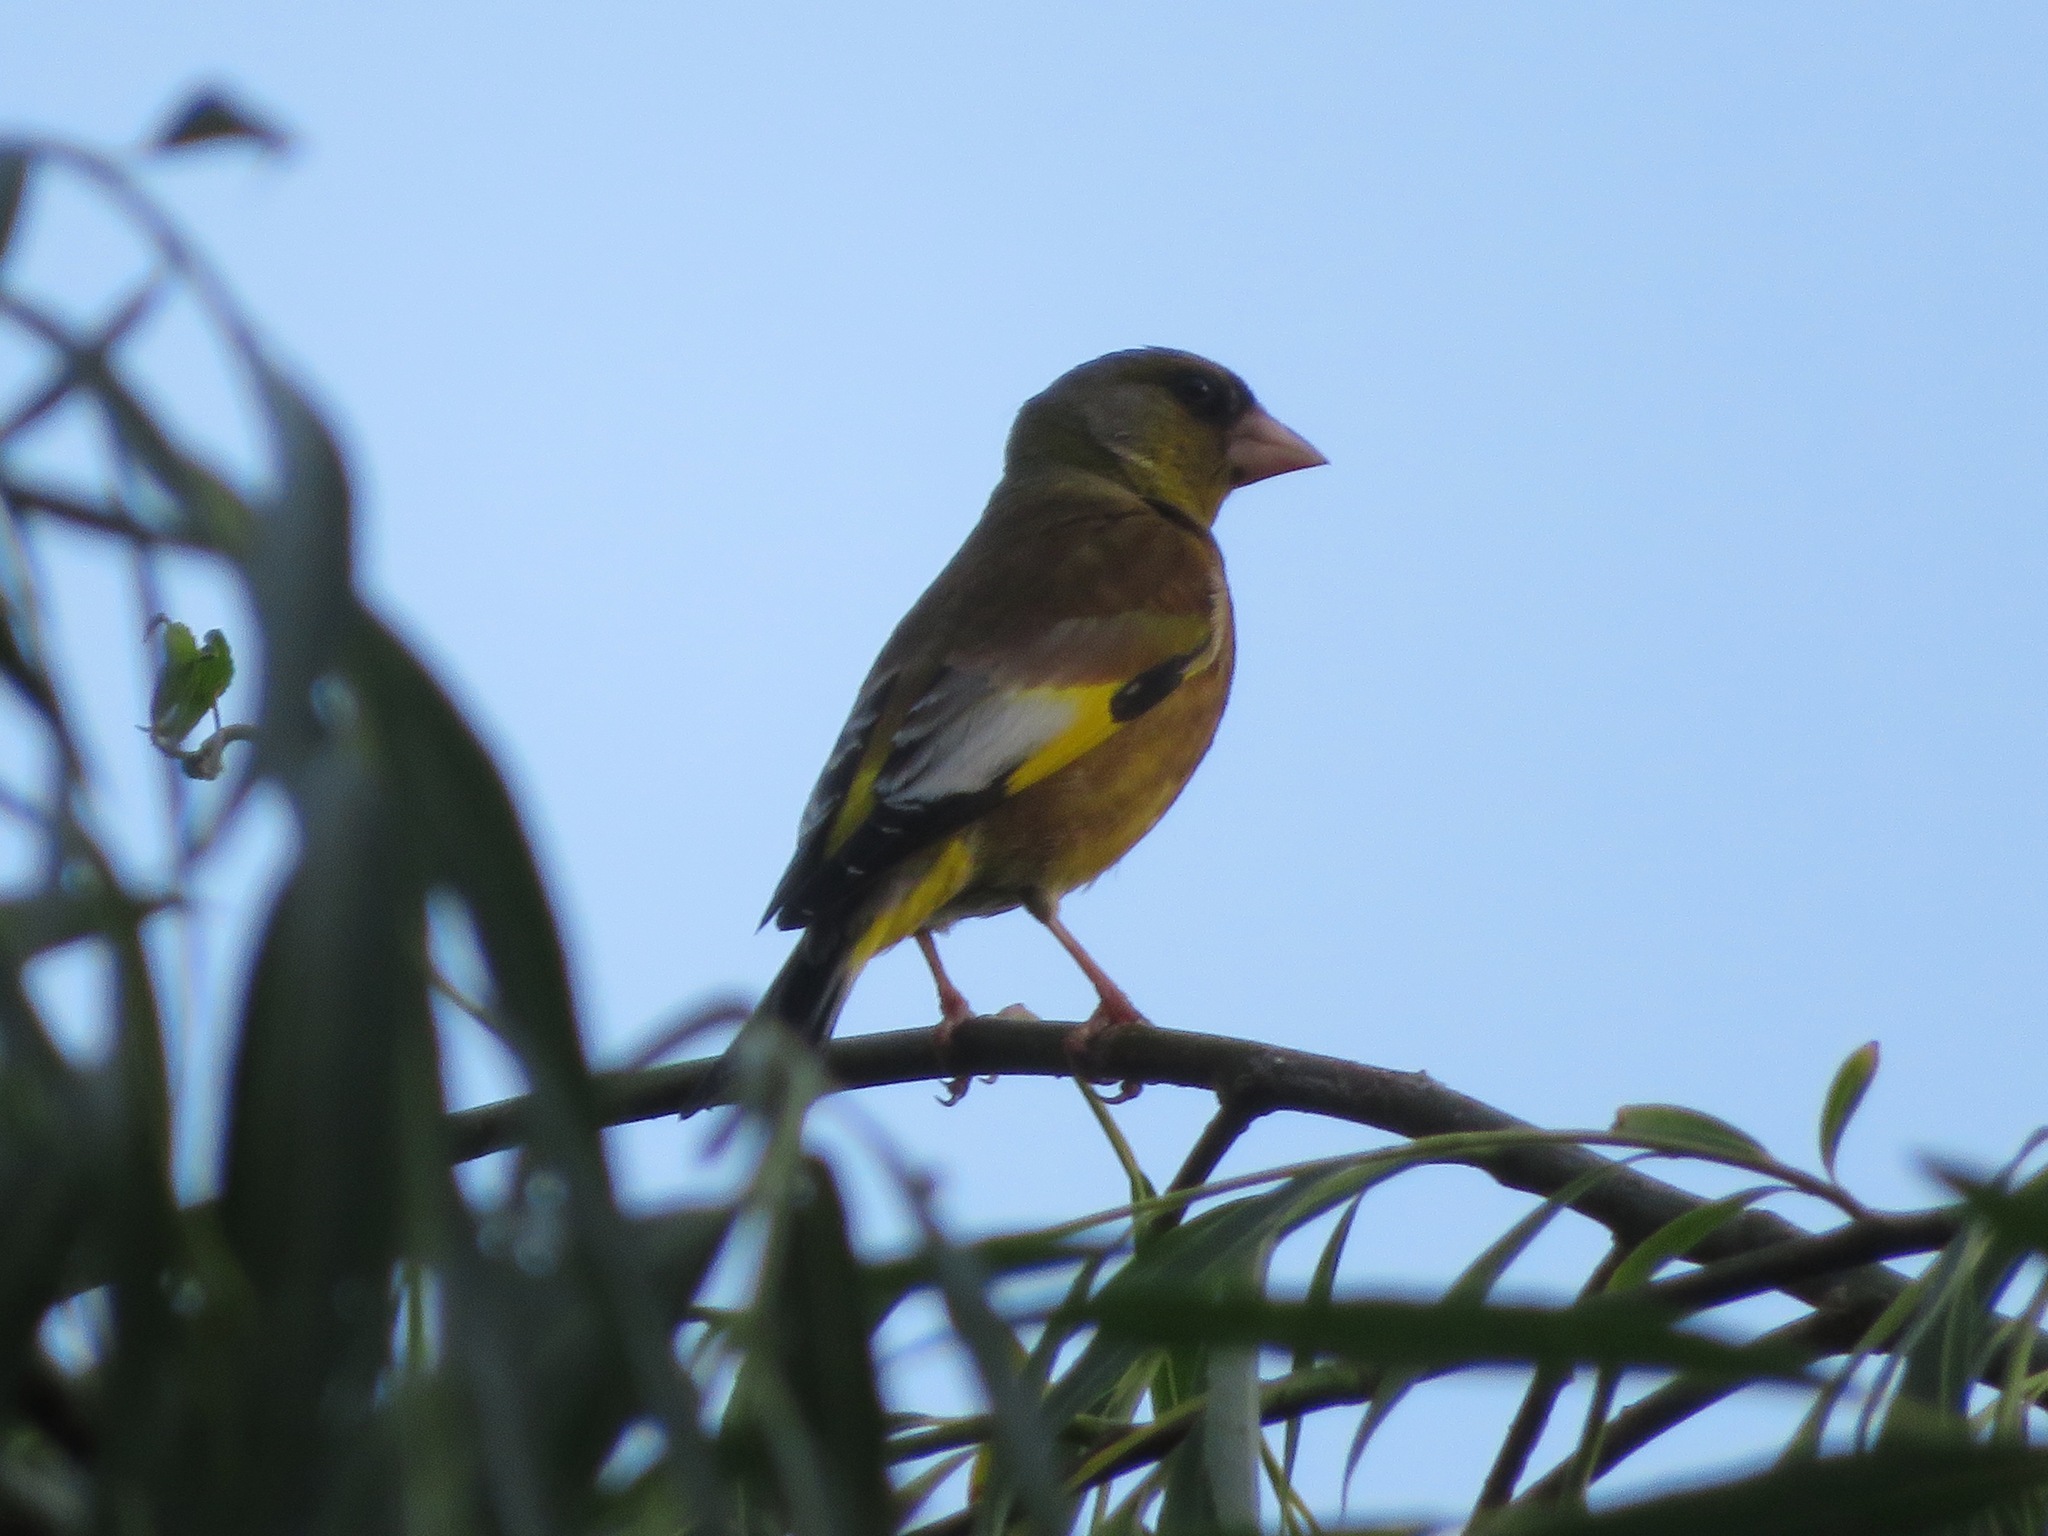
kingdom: Plantae
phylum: Tracheophyta
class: Liliopsida
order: Poales
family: Poaceae
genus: Chloris
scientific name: Chloris sinica
